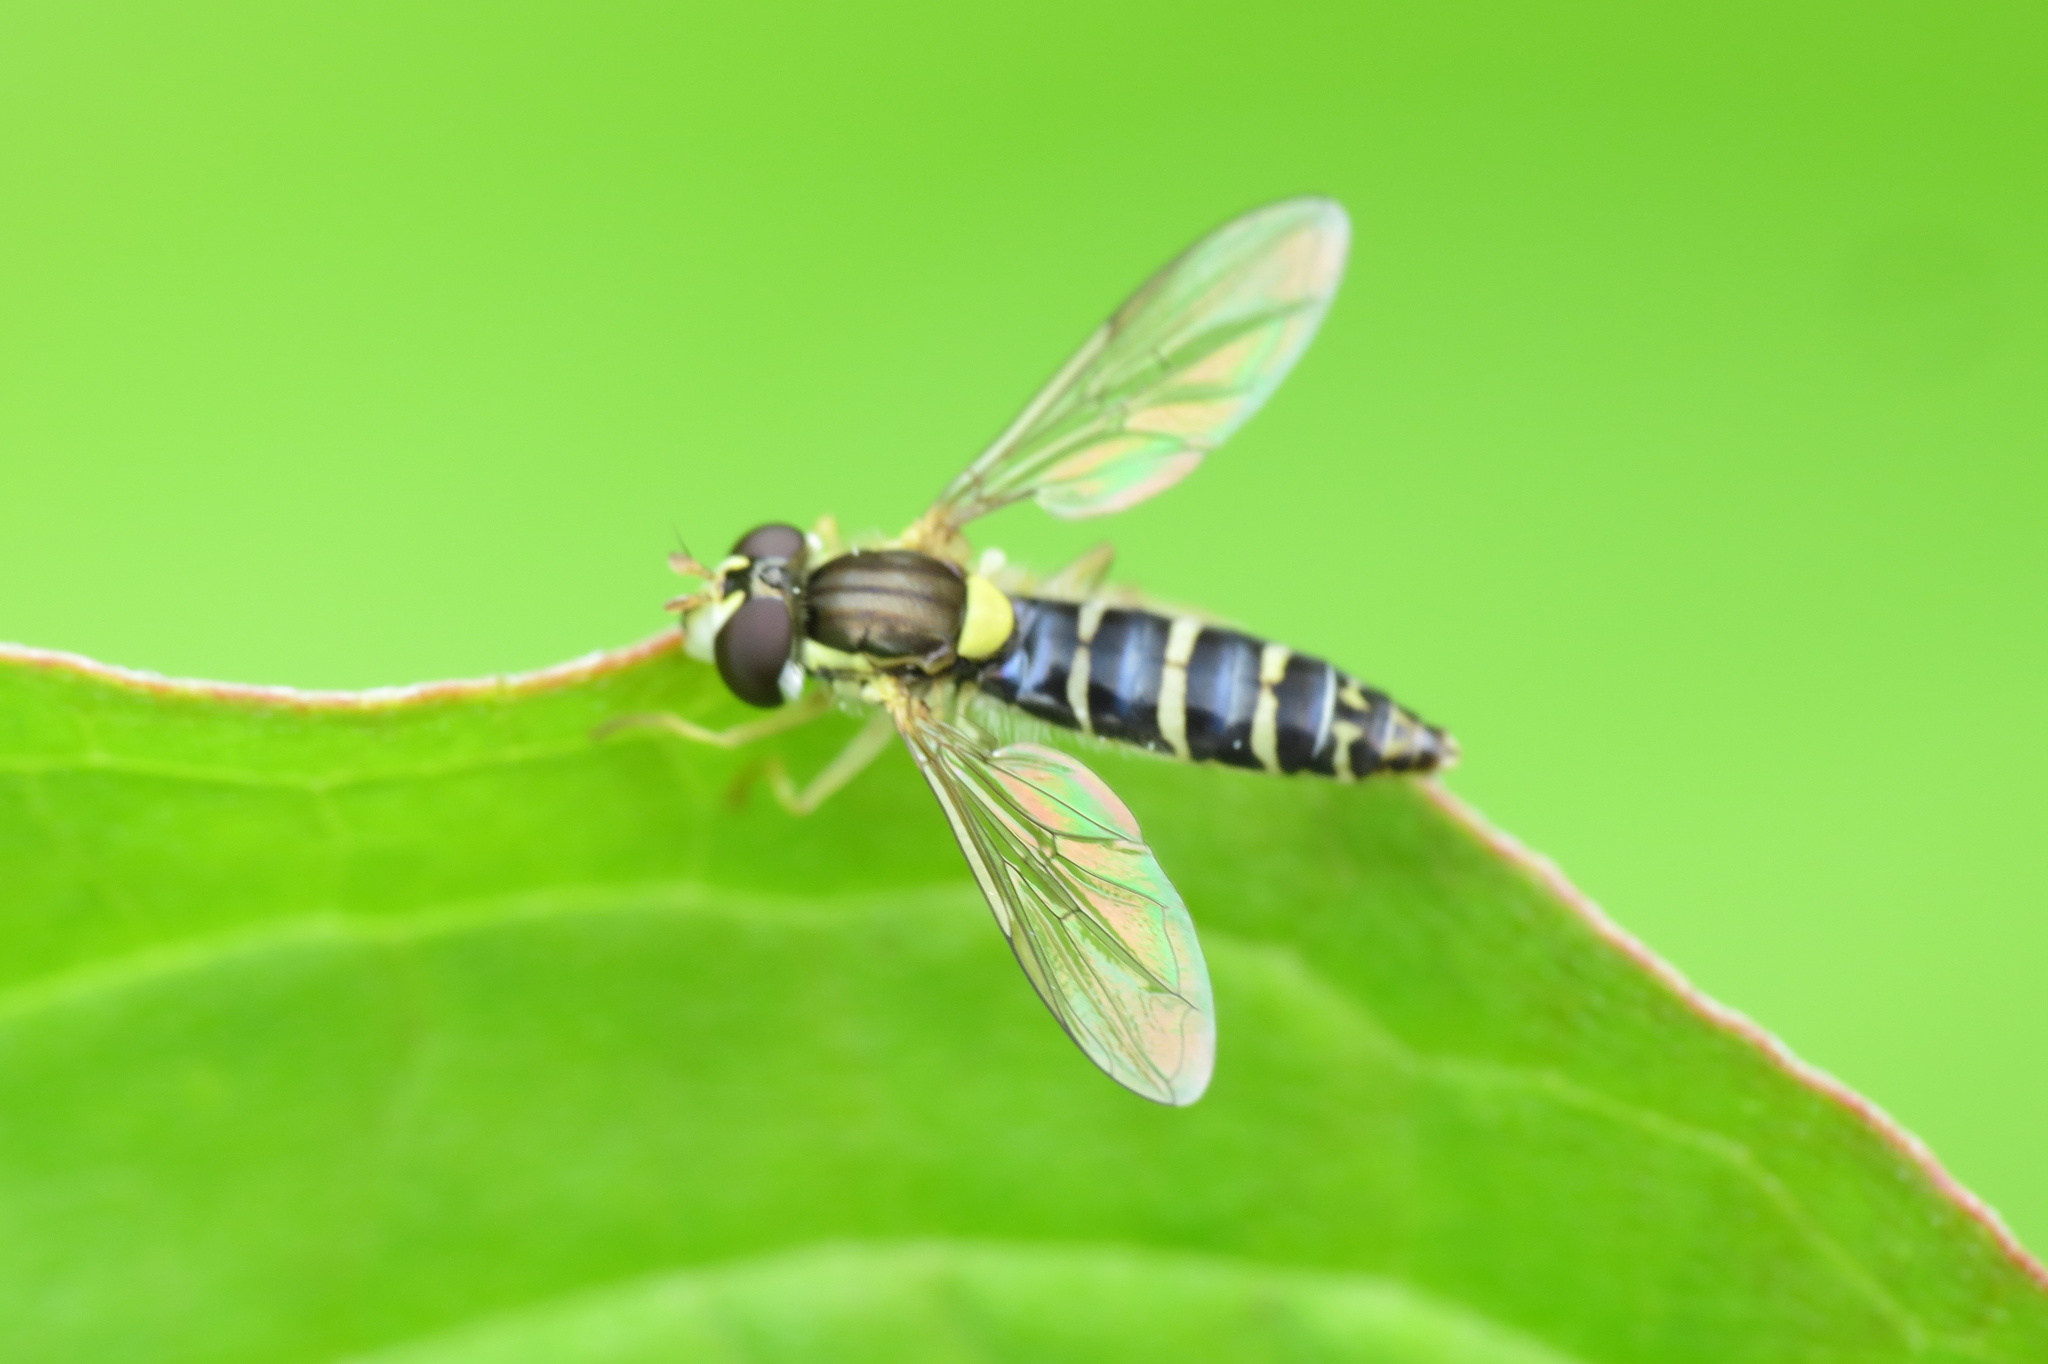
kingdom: Animalia
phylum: Arthropoda
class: Insecta
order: Diptera
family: Syrphidae
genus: Sphaerophoria
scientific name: Sphaerophoria
